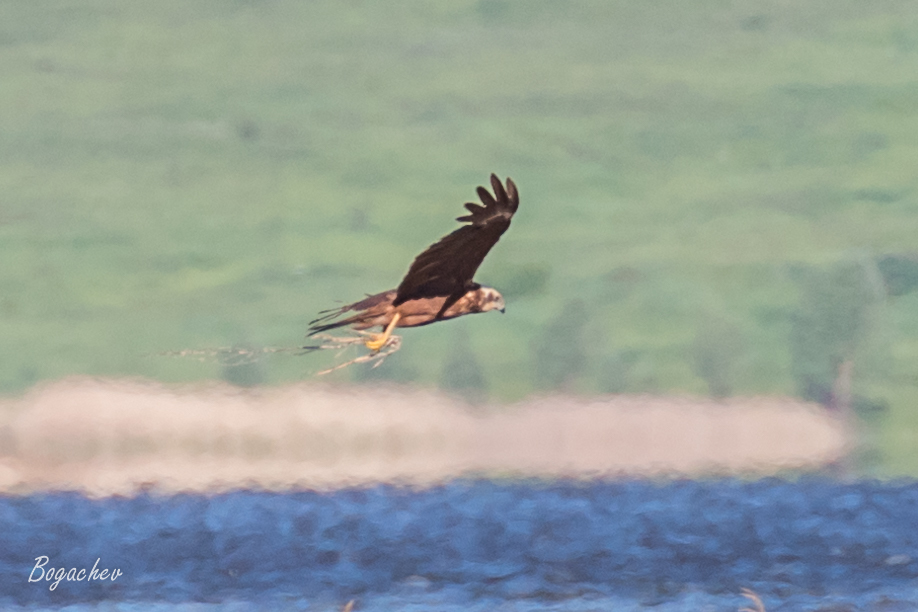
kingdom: Animalia
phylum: Chordata
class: Aves
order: Accipitriformes
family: Accipitridae
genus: Circus
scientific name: Circus aeruginosus
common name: Western marsh harrier
